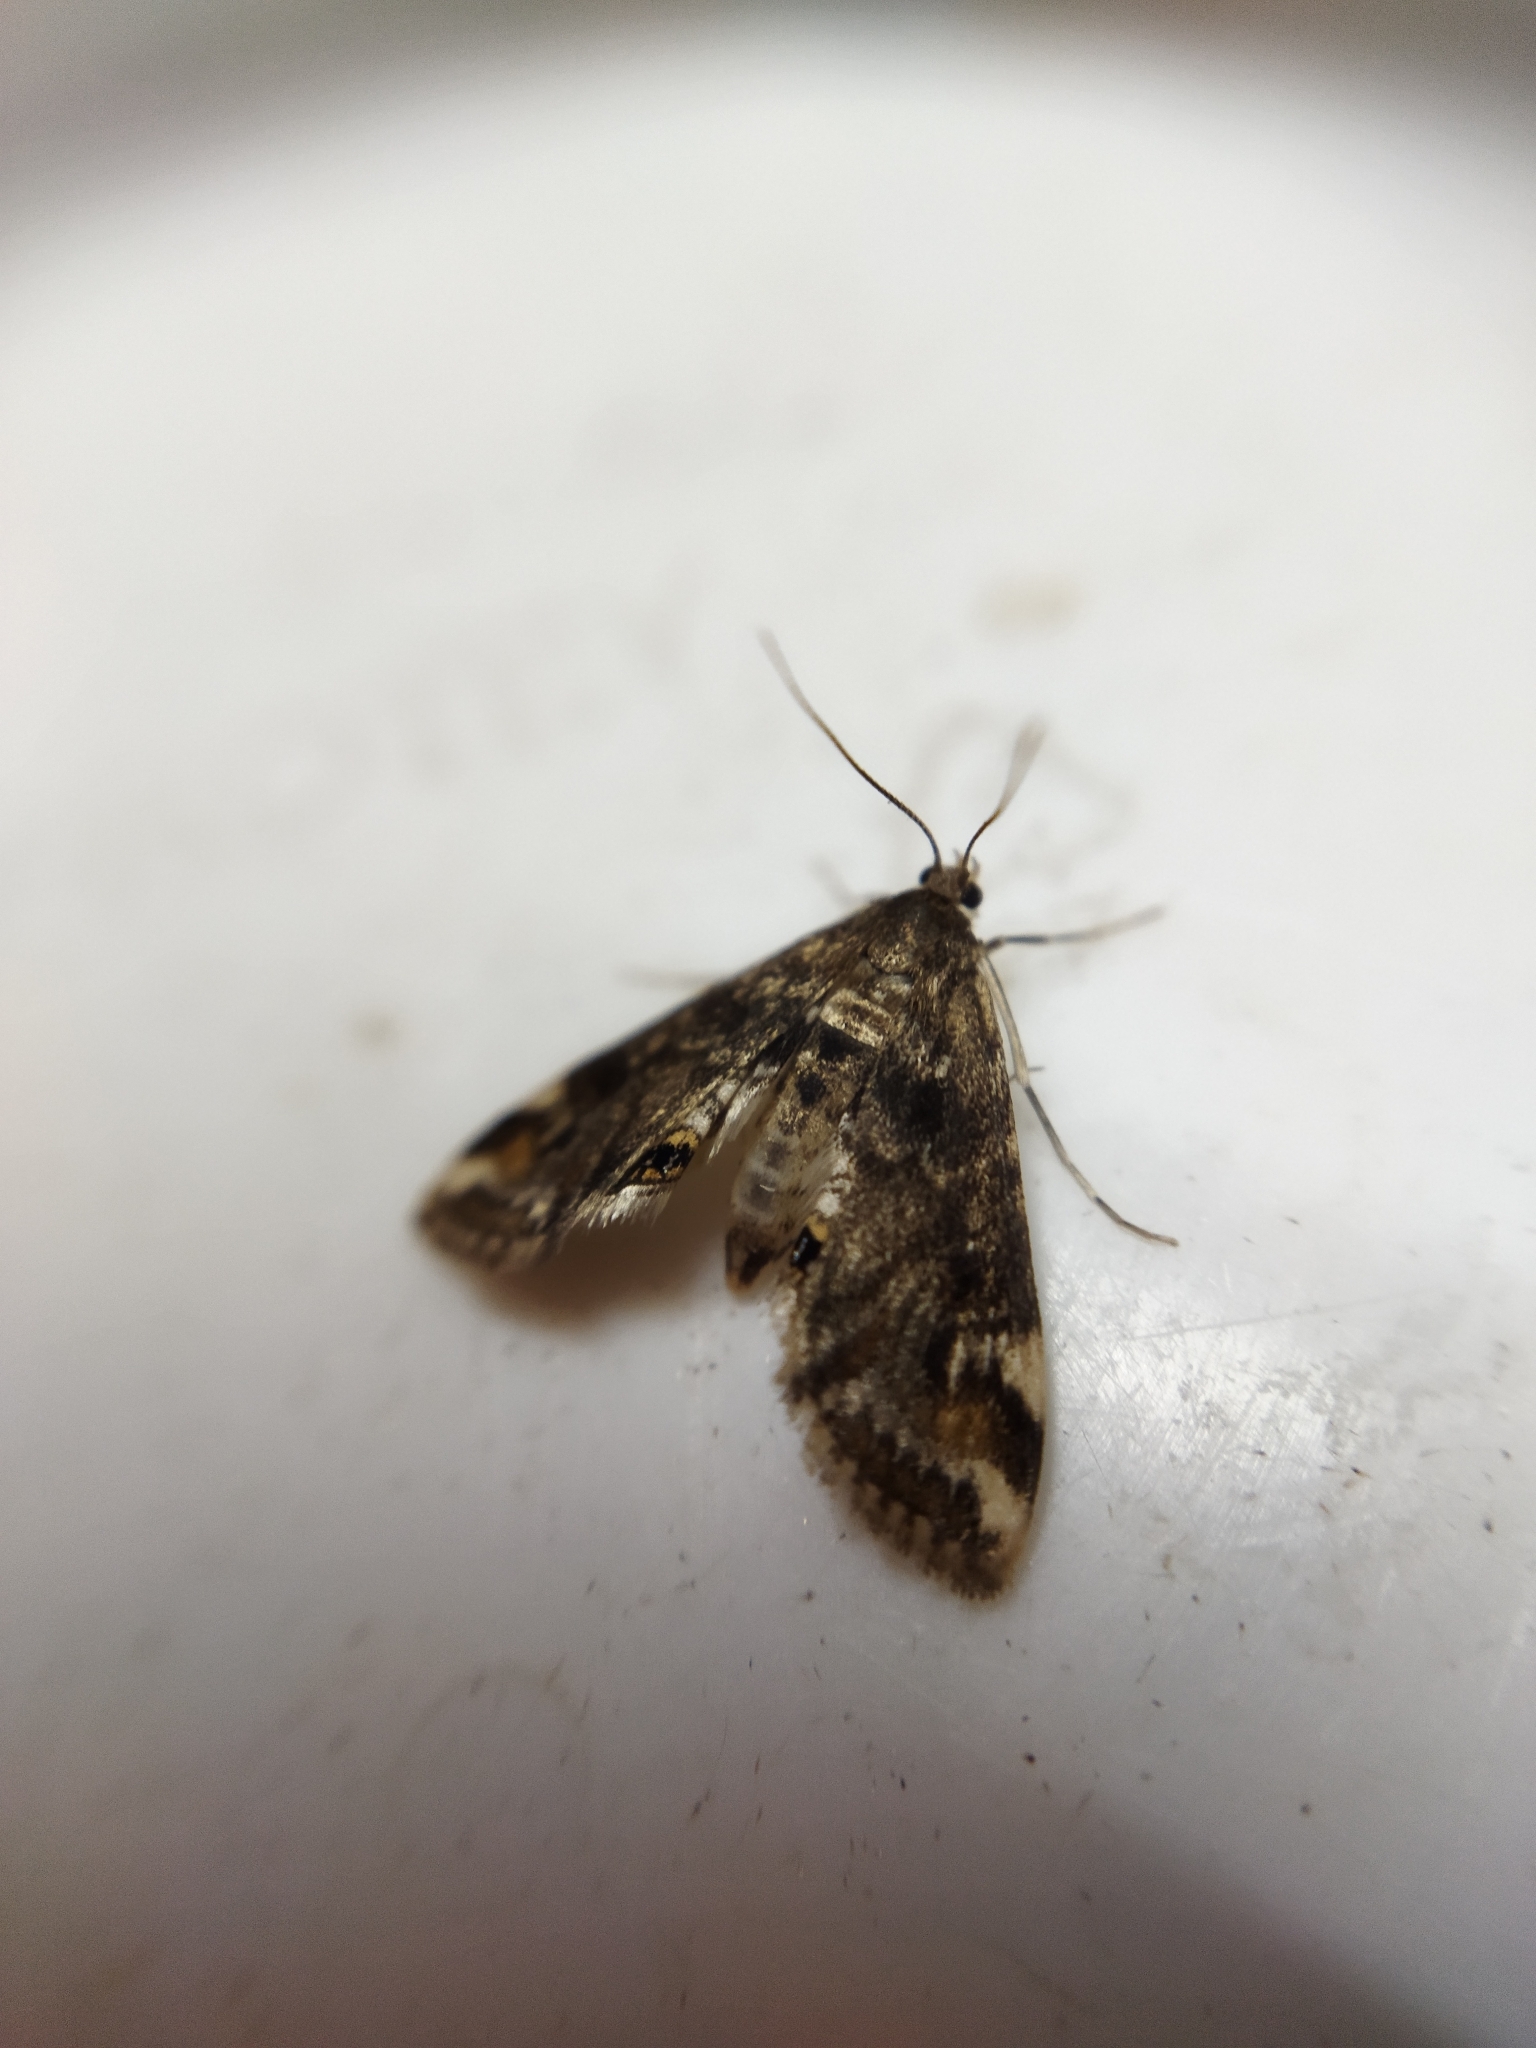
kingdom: Animalia
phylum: Arthropoda
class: Insecta
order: Lepidoptera
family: Crambidae
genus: Cataclysta
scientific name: Cataclysta lemnata
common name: Small china-mark
